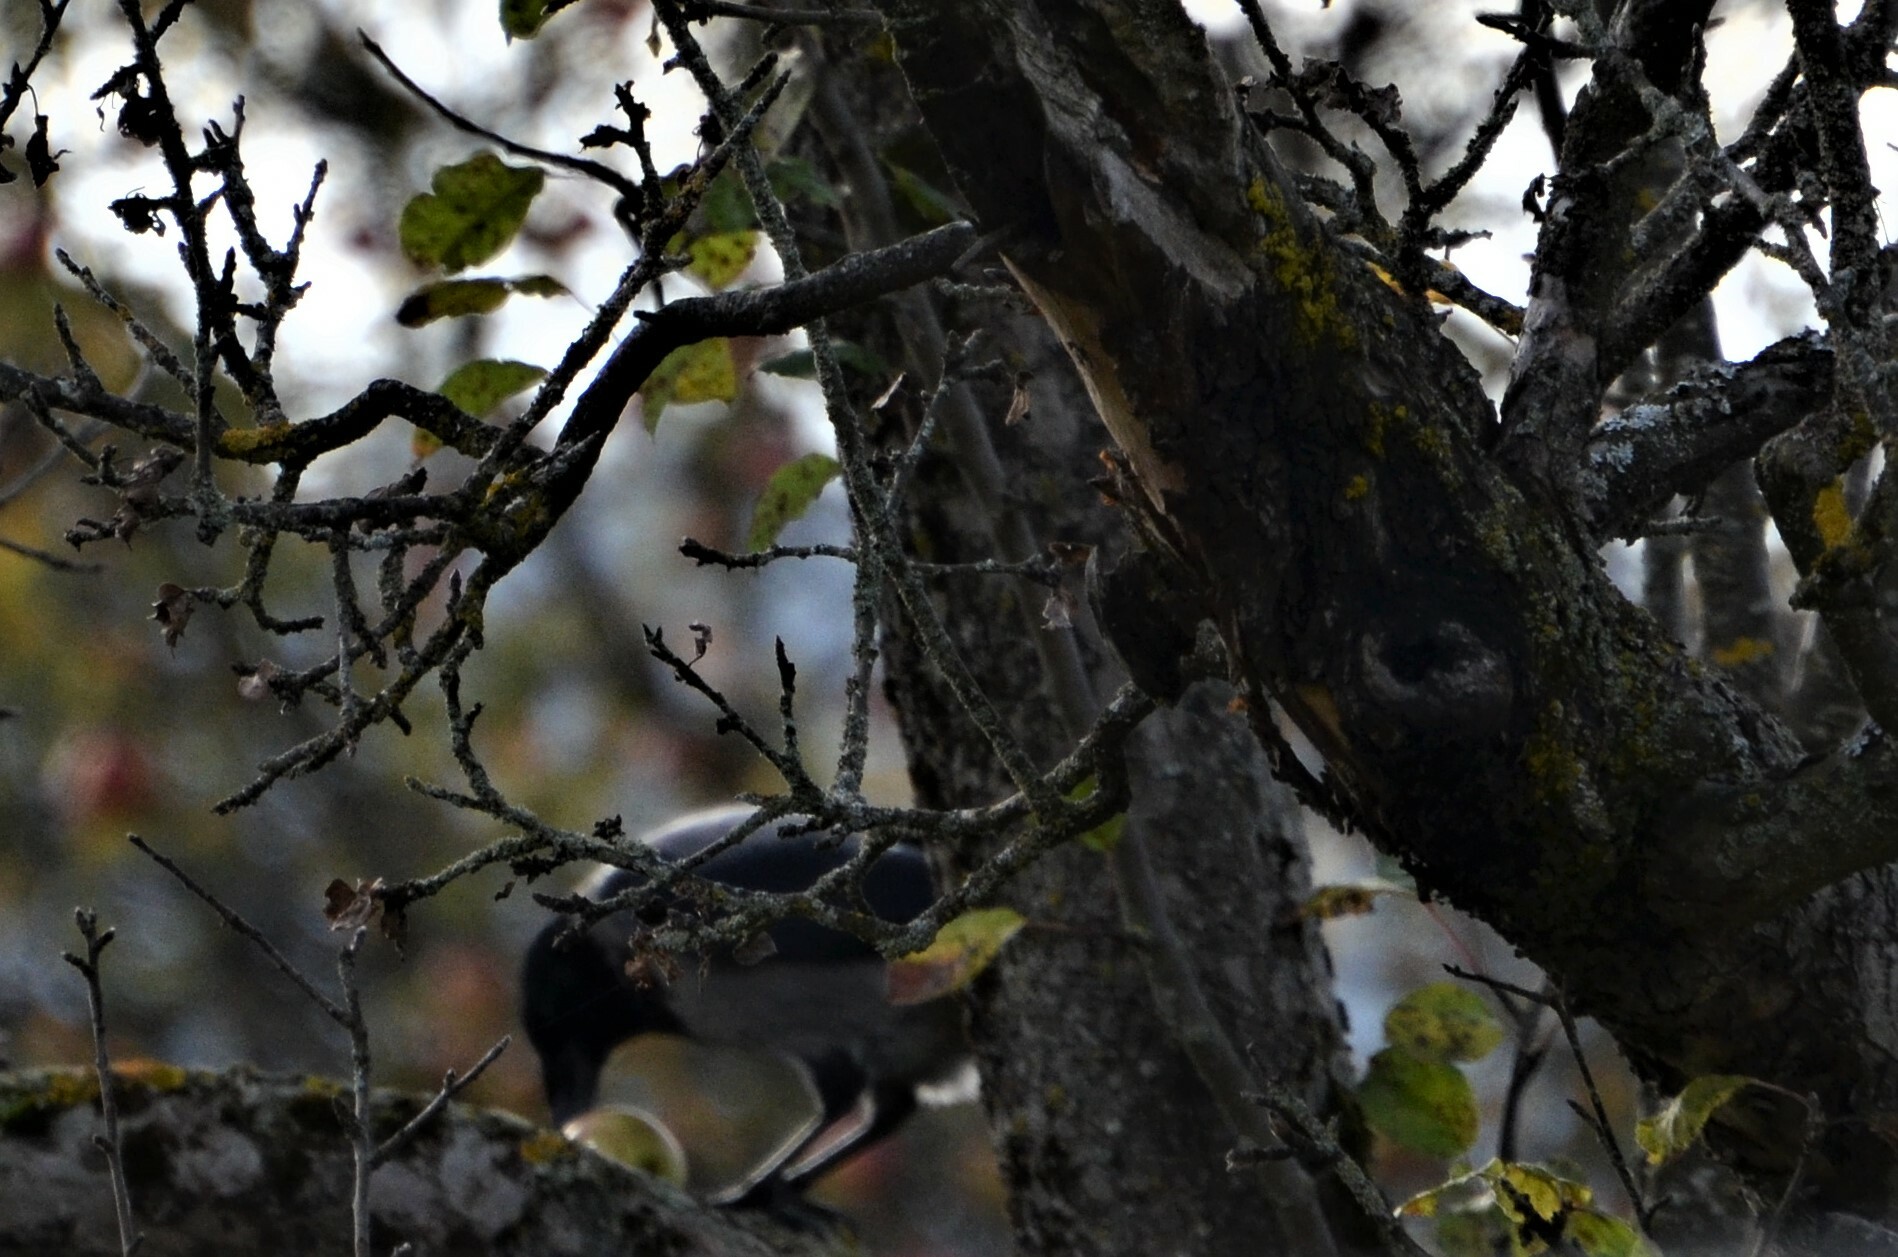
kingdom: Animalia
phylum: Chordata
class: Aves
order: Passeriformes
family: Corvidae
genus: Corvus
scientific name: Corvus cornix
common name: Hooded crow
